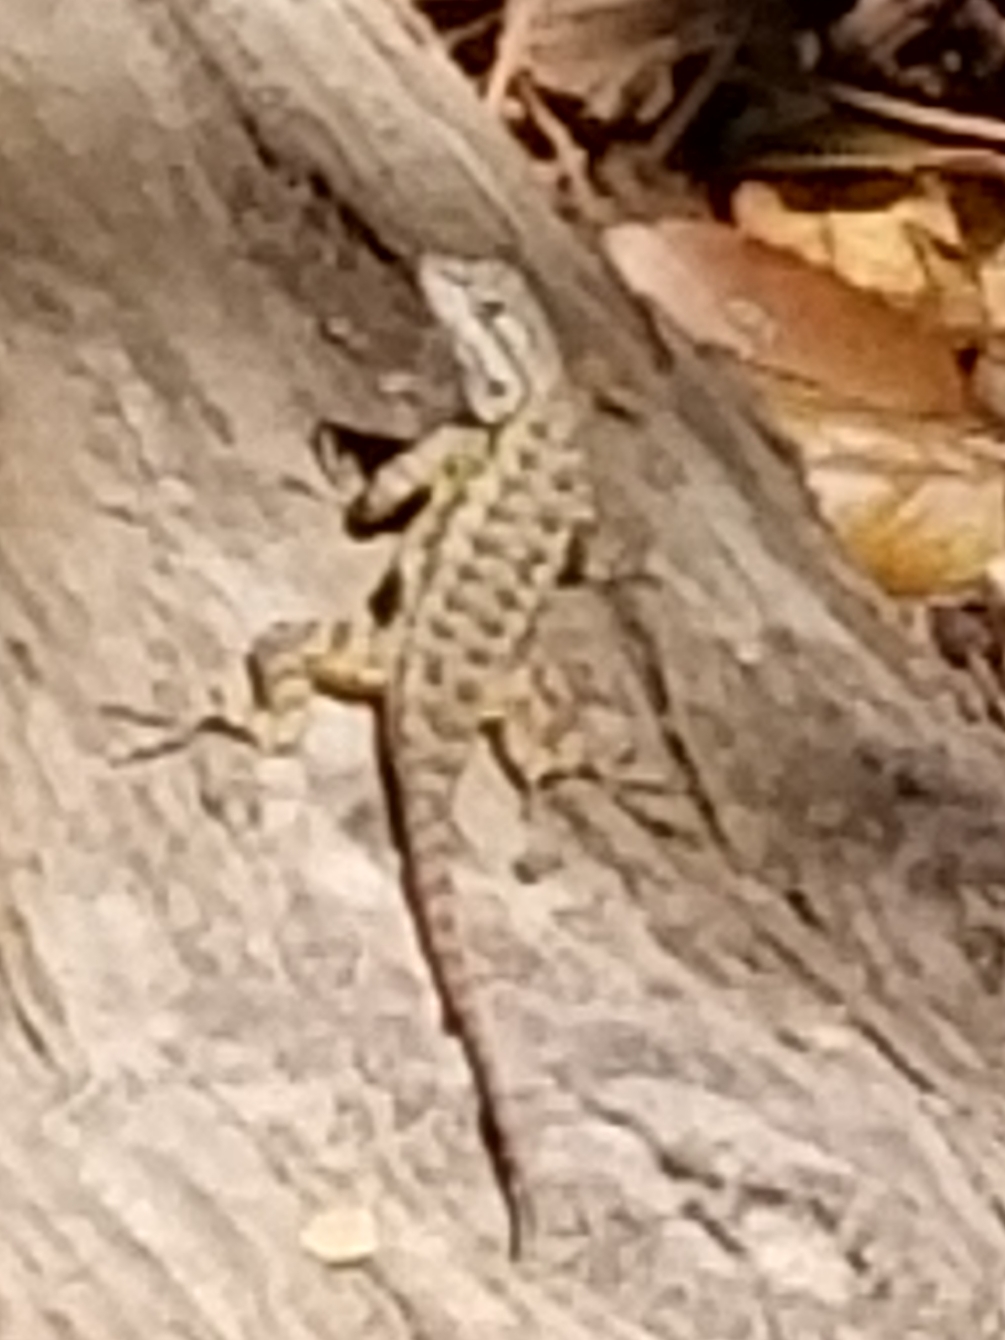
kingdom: Animalia
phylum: Chordata
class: Squamata
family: Phrynosomatidae
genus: Sceloporus
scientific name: Sceloporus occidentalis
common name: Western fence lizard
